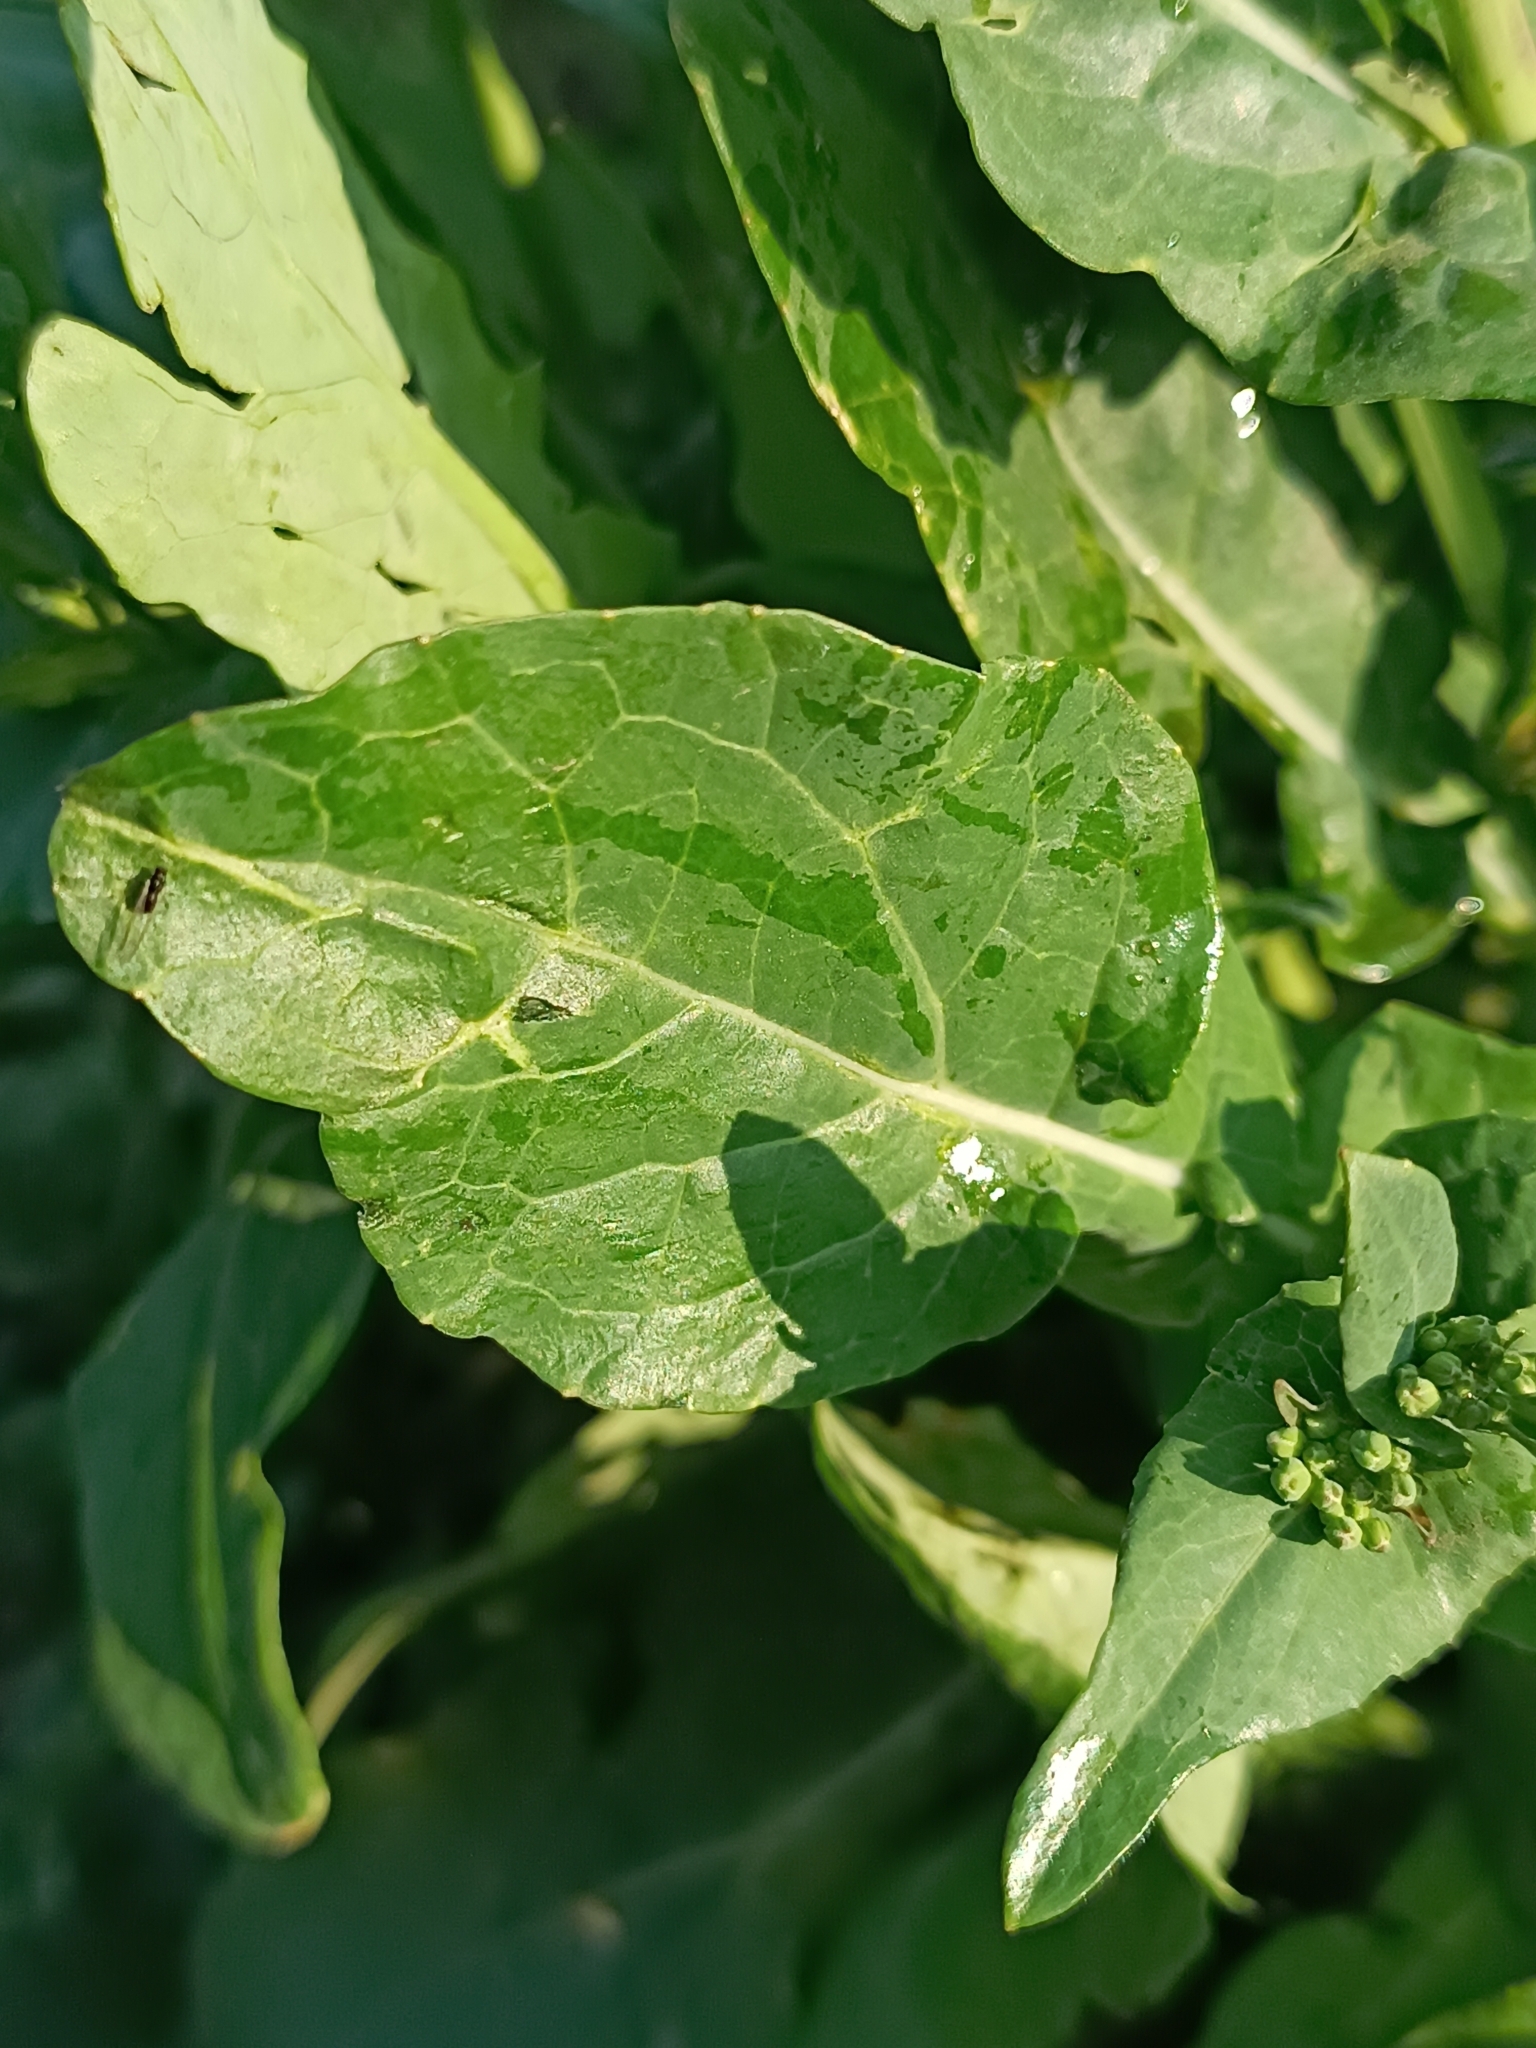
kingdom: Plantae
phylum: Tracheophyta
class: Magnoliopsida
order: Brassicales
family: Brassicaceae
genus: Brassica
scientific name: Brassica rapa
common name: Field mustard
